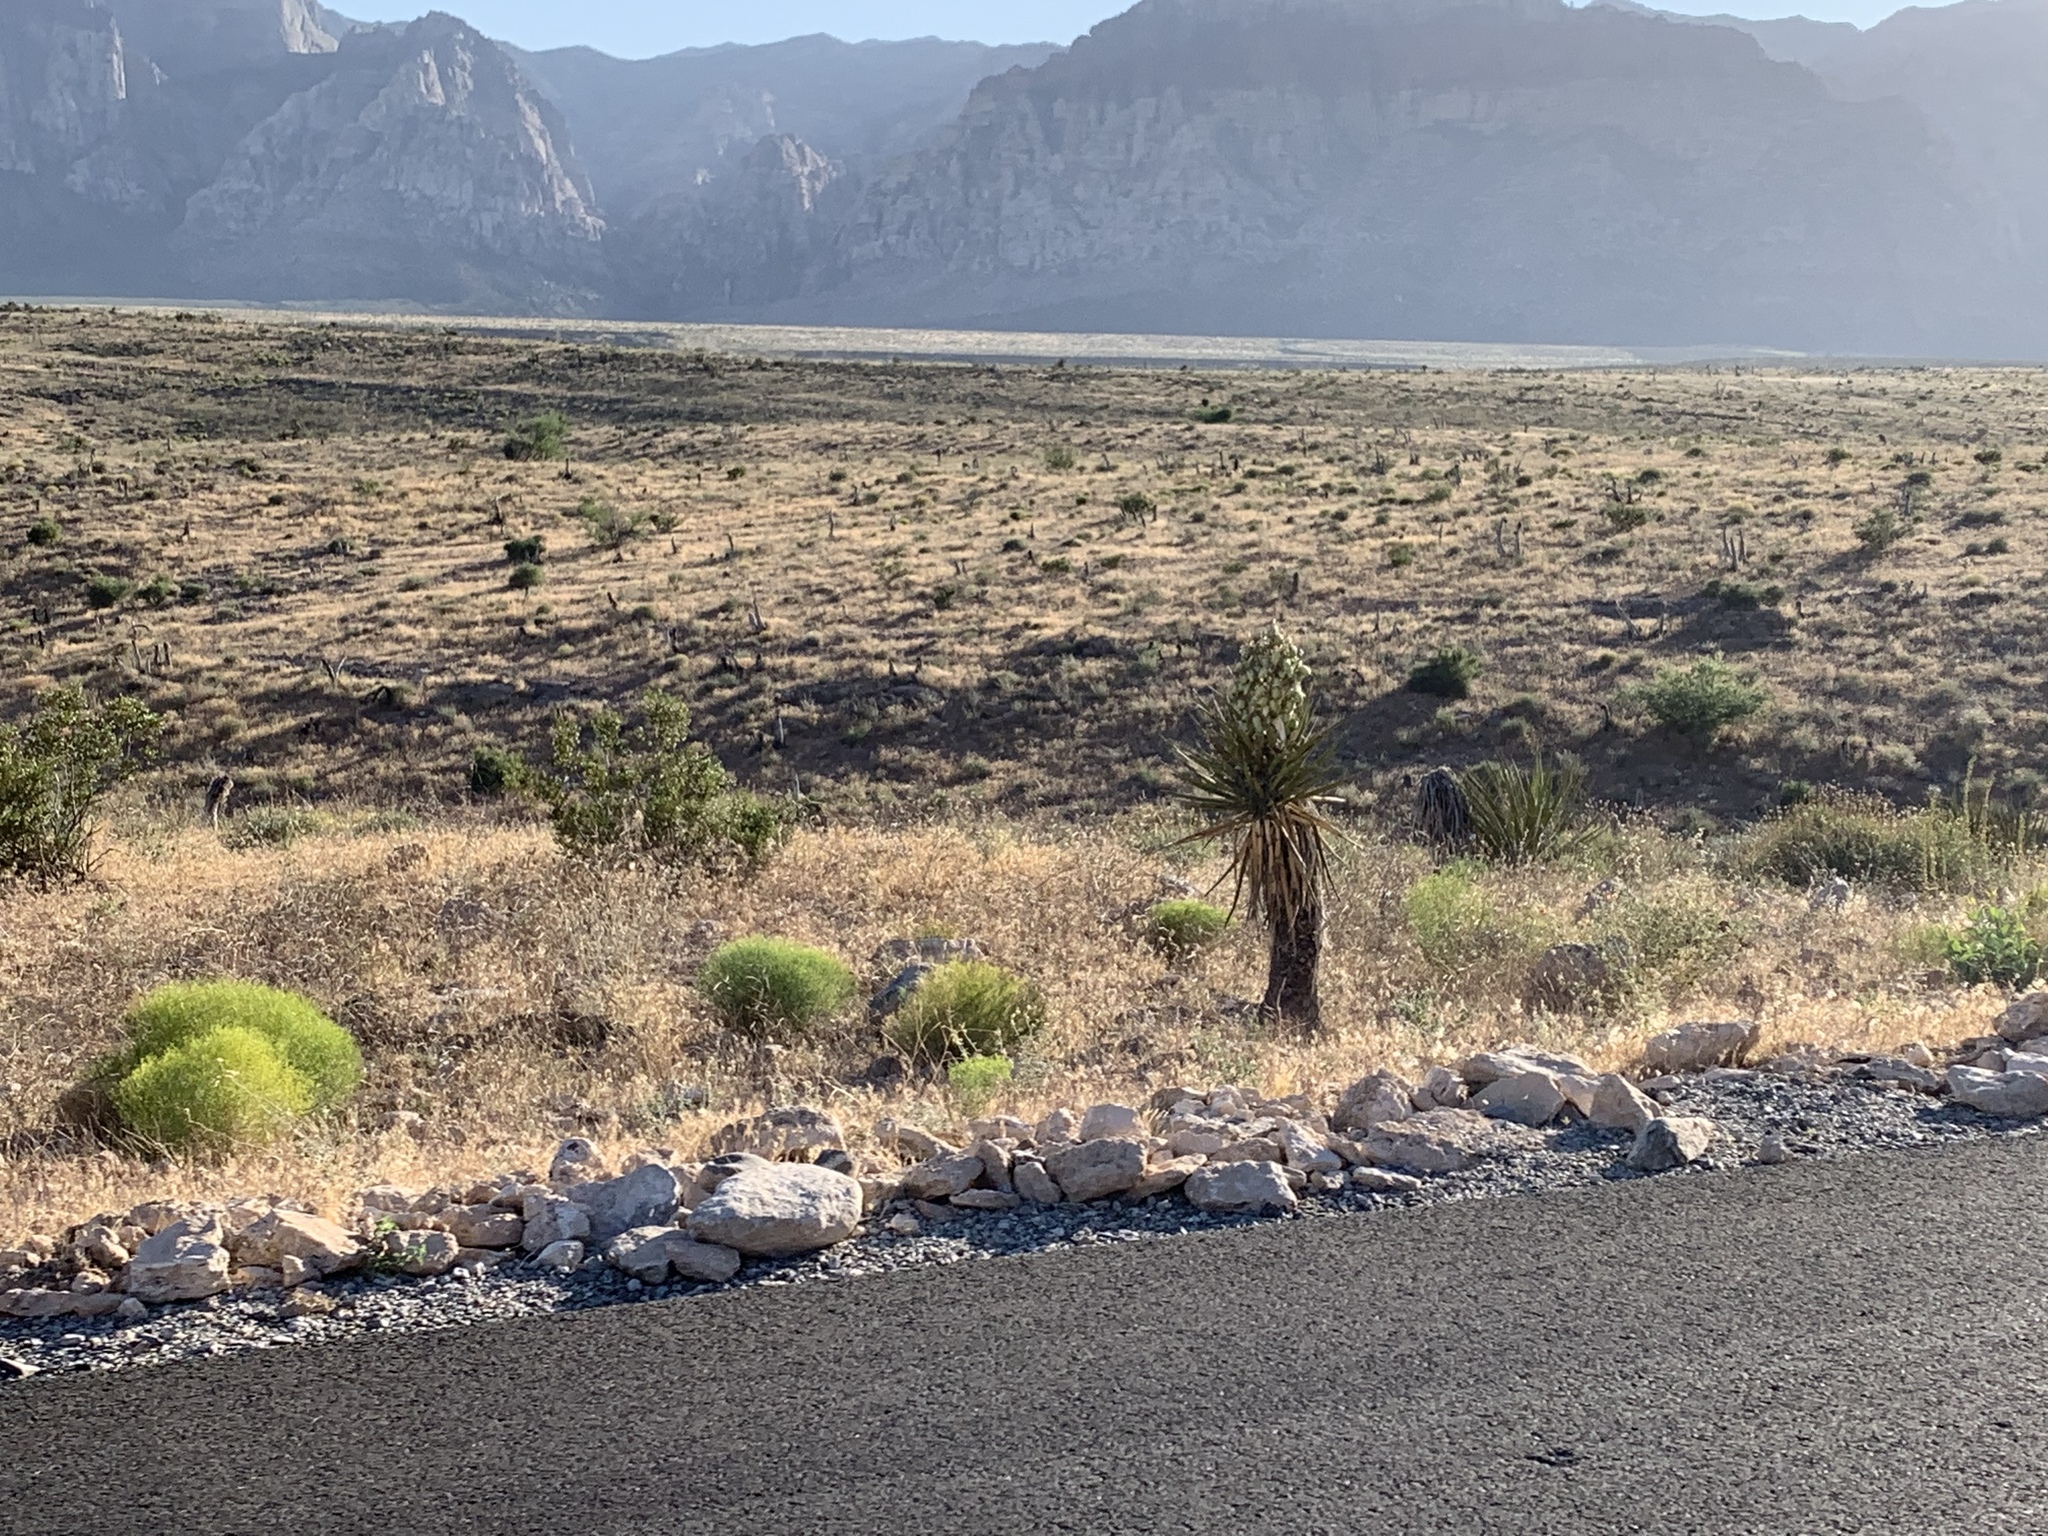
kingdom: Plantae
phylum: Tracheophyta
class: Liliopsida
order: Asparagales
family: Asparagaceae
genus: Yucca
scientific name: Yucca schidigera
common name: Mojave yucca
